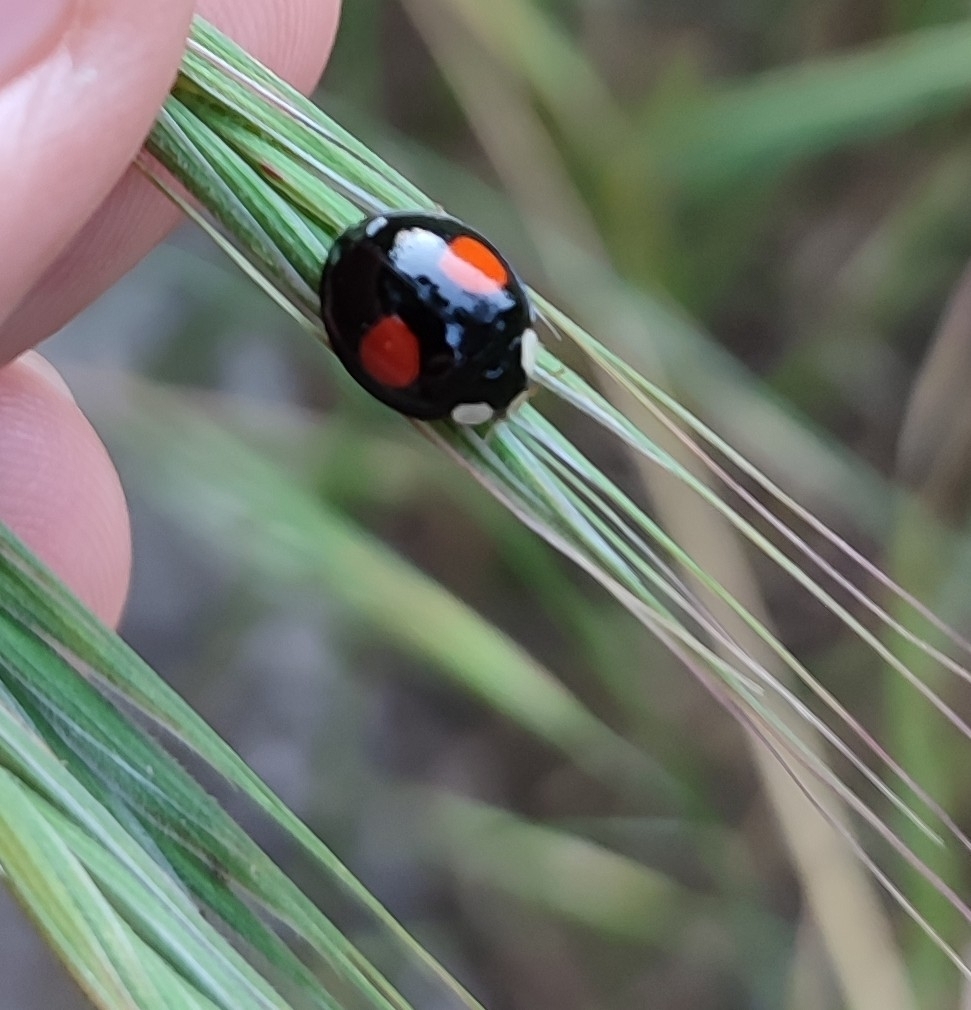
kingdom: Animalia
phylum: Arthropoda
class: Insecta
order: Coleoptera
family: Coccinellidae
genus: Harmonia
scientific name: Harmonia axyridis
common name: Harlequin ladybird
